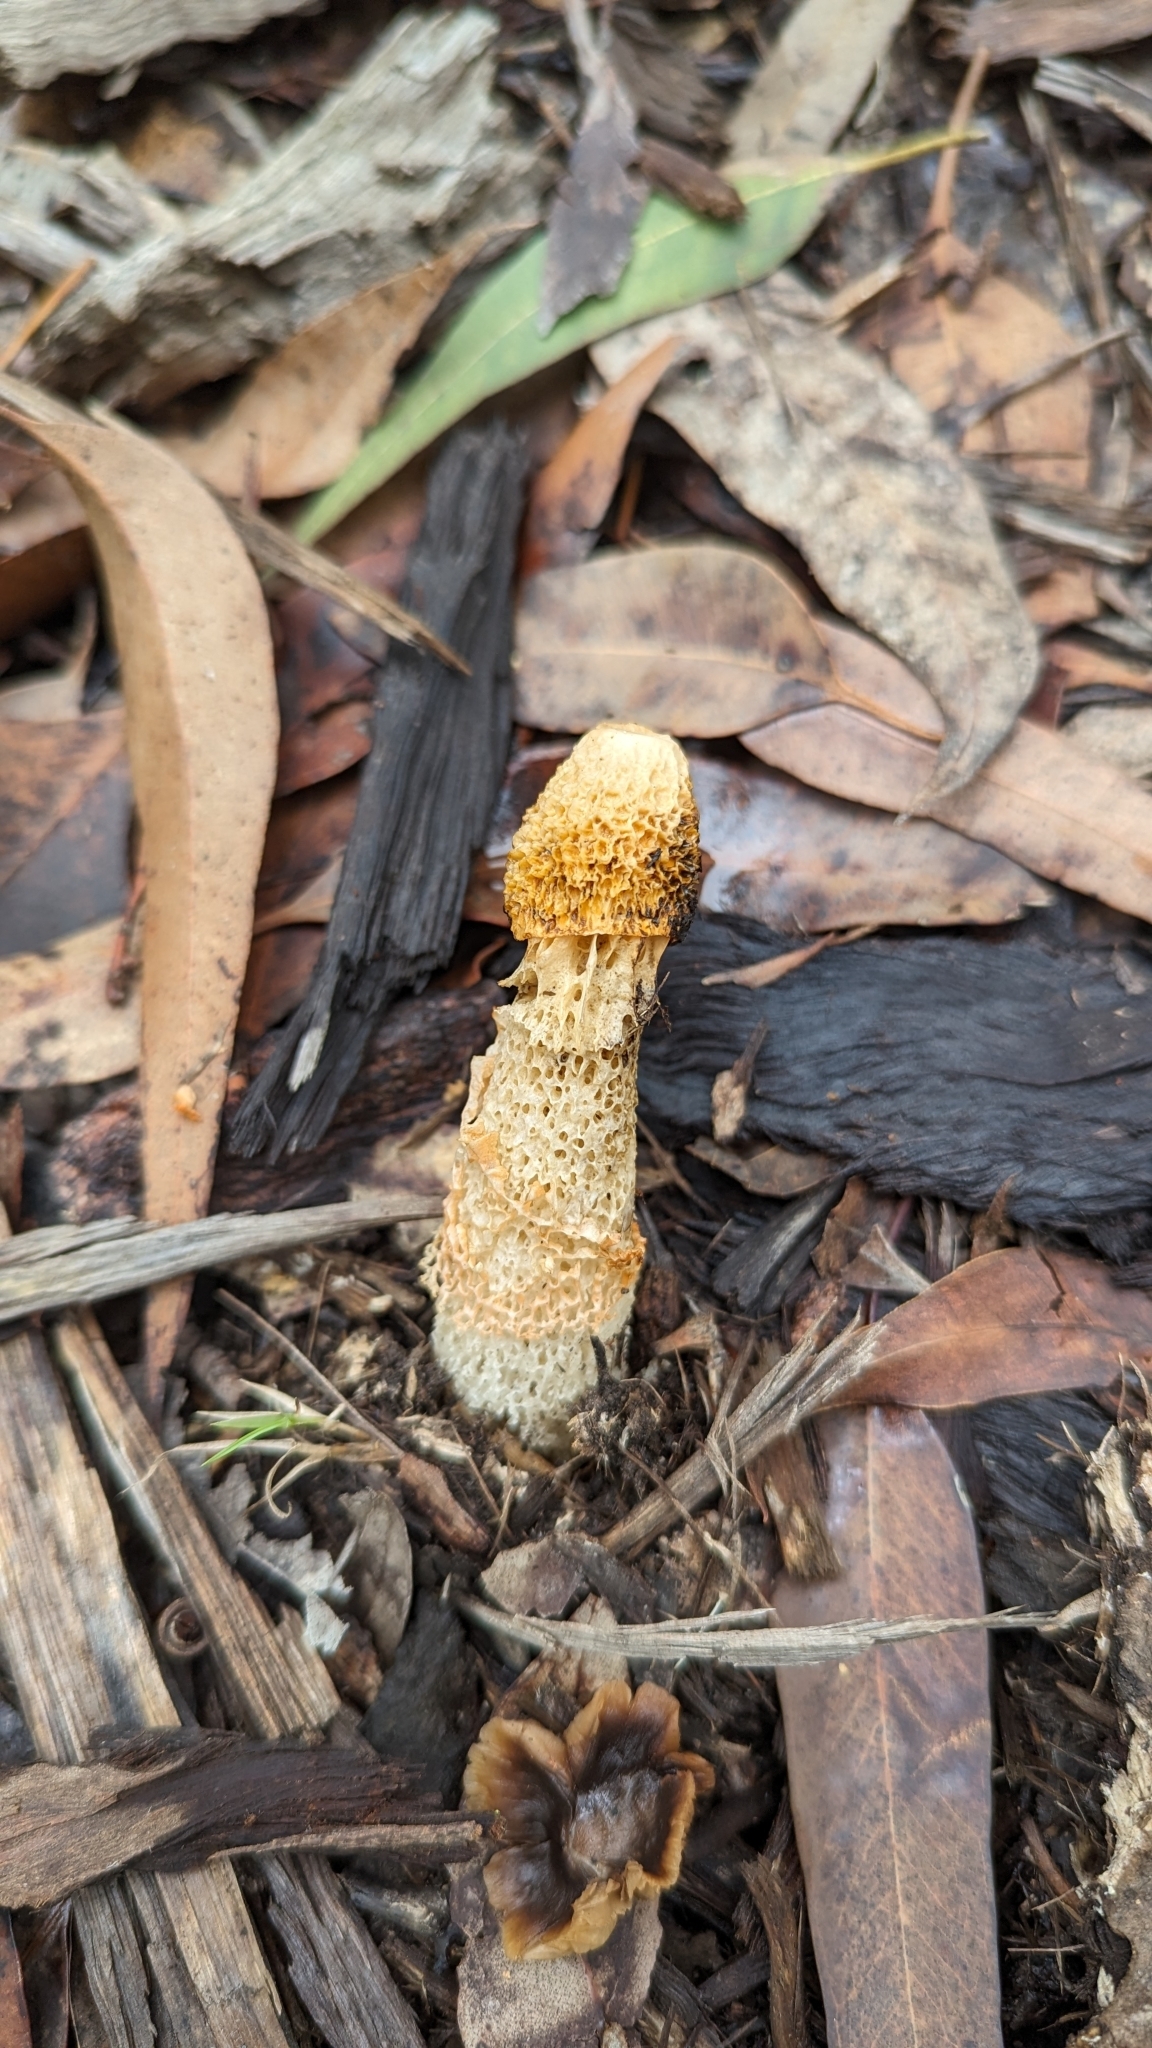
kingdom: Fungi
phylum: Basidiomycota
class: Agaricomycetes
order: Phallales
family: Phallaceae
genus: Phallus
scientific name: Phallus multicolor
